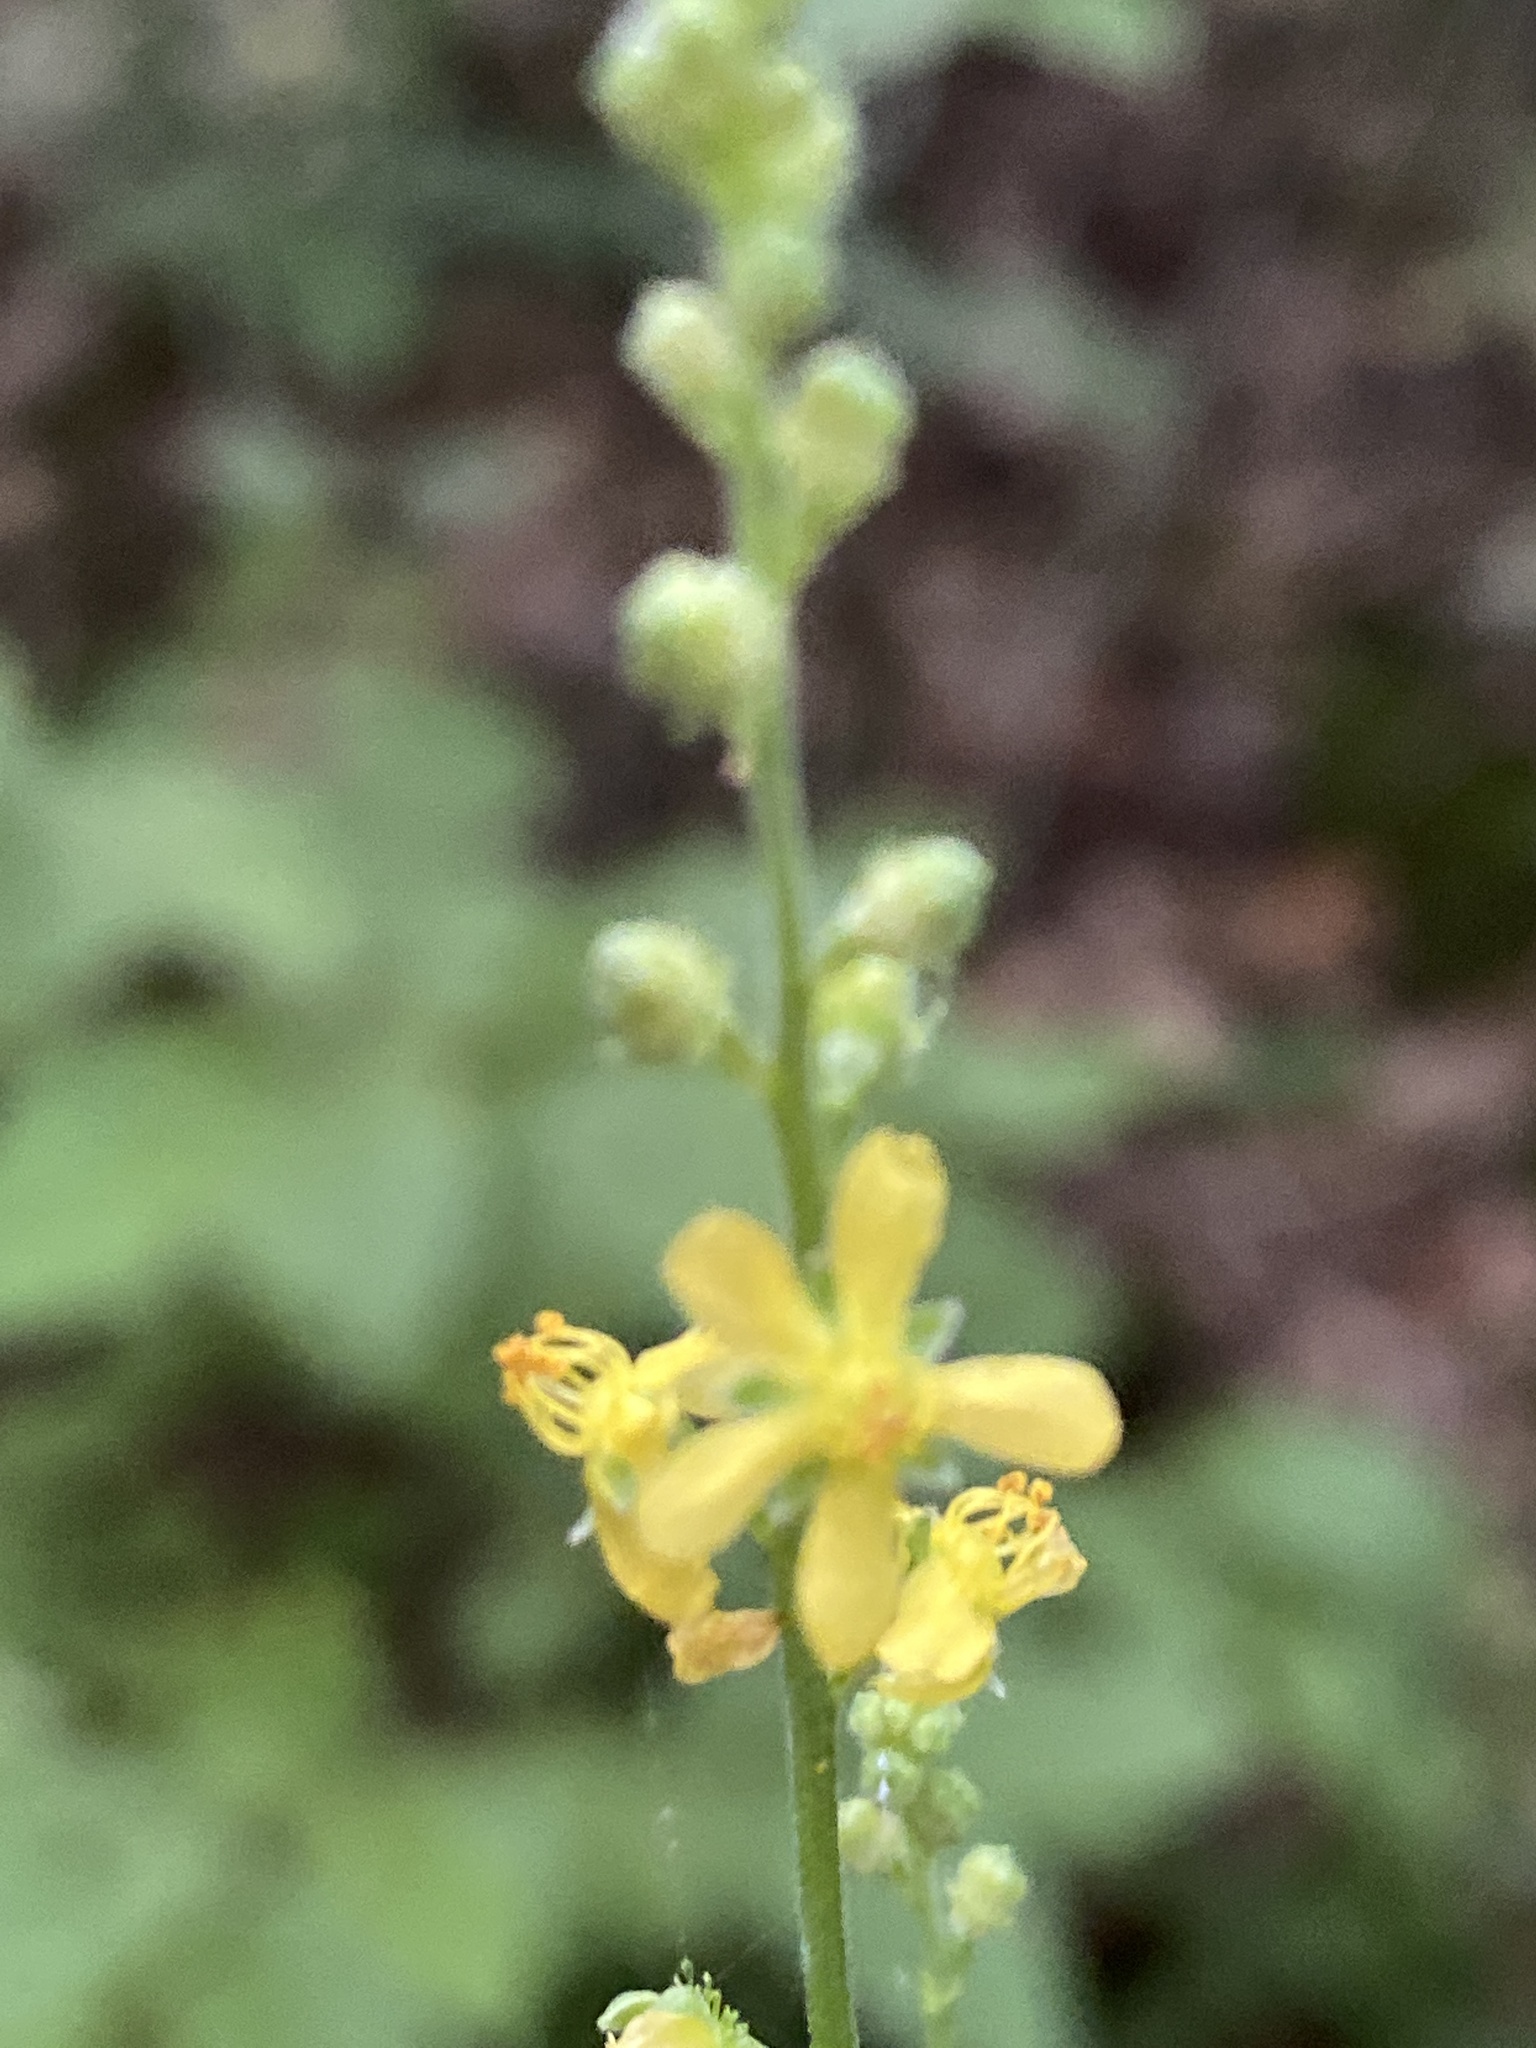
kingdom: Plantae
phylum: Tracheophyta
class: Magnoliopsida
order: Rosales
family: Rosaceae
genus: Agrimonia
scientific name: Agrimonia rostellata
